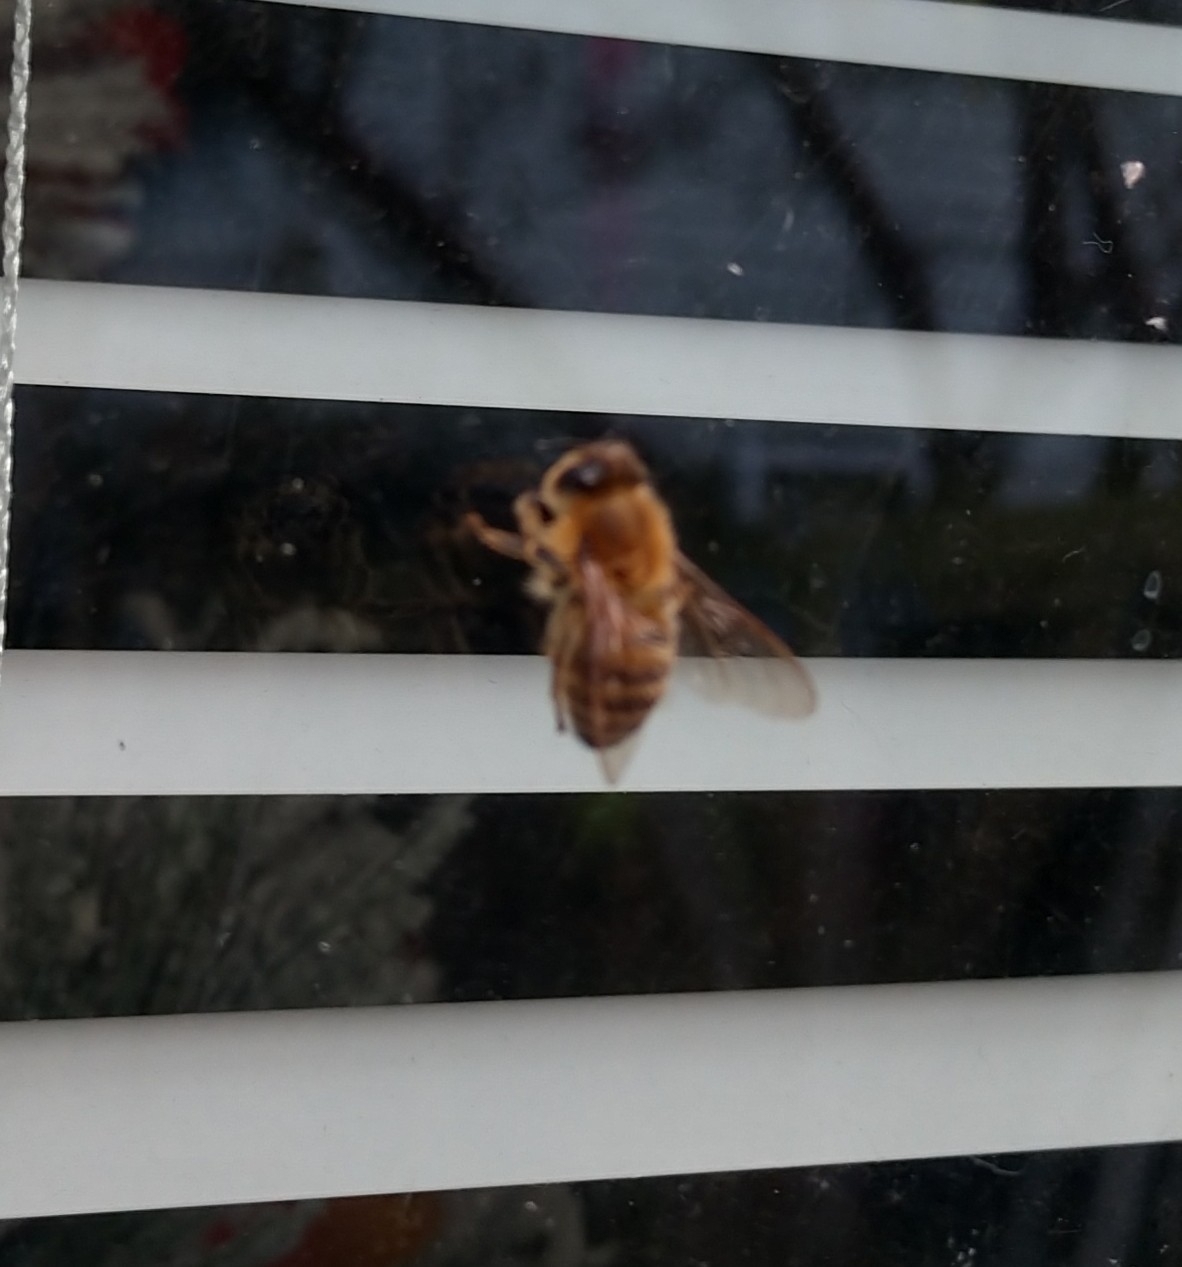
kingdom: Animalia
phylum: Arthropoda
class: Insecta
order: Hymenoptera
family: Apidae
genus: Apis
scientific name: Apis mellifera
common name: Honey bee
